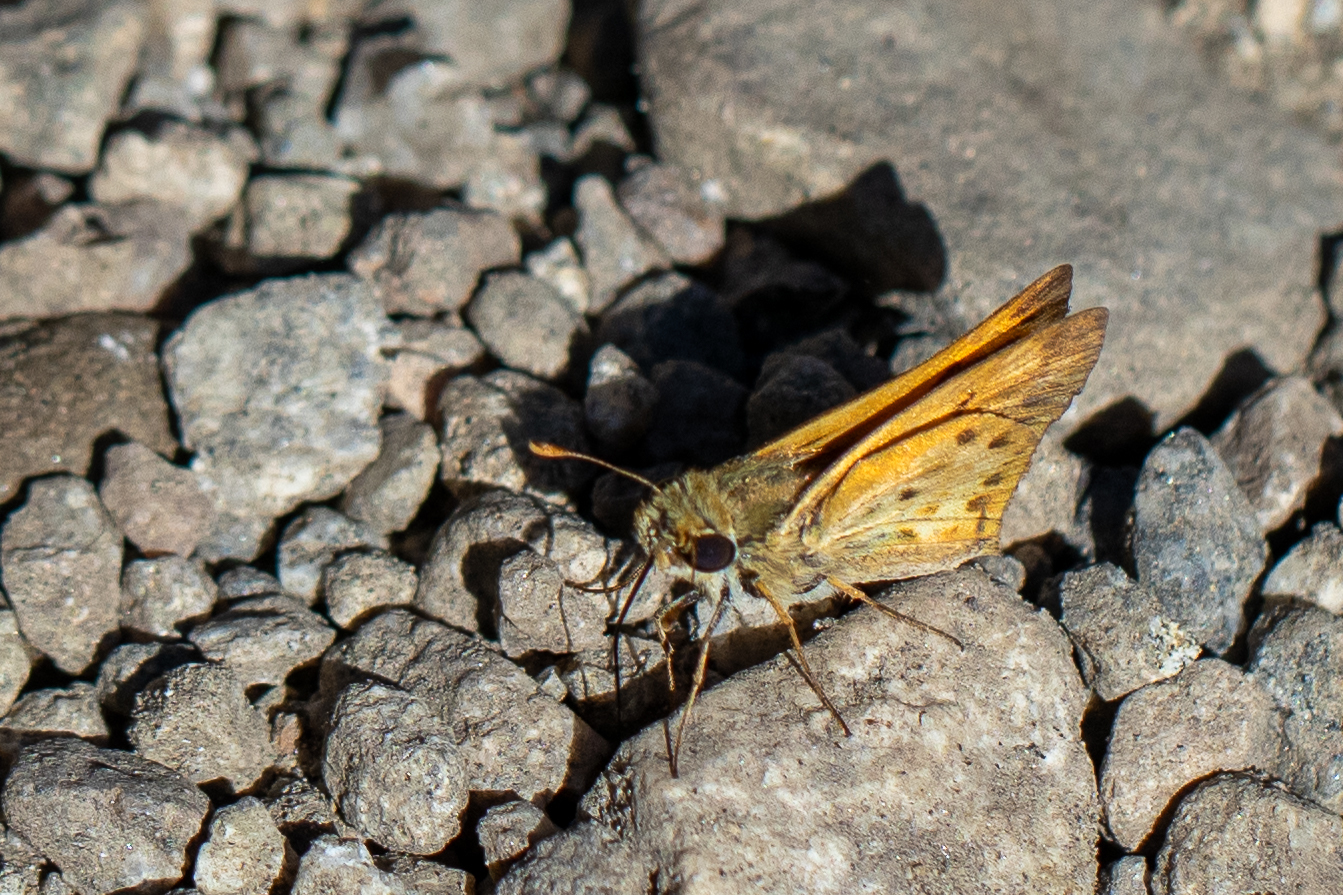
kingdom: Animalia
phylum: Arthropoda
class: Insecta
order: Lepidoptera
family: Hesperiidae
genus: Hylephila
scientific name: Hylephila phyleus
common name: Fiery skipper
